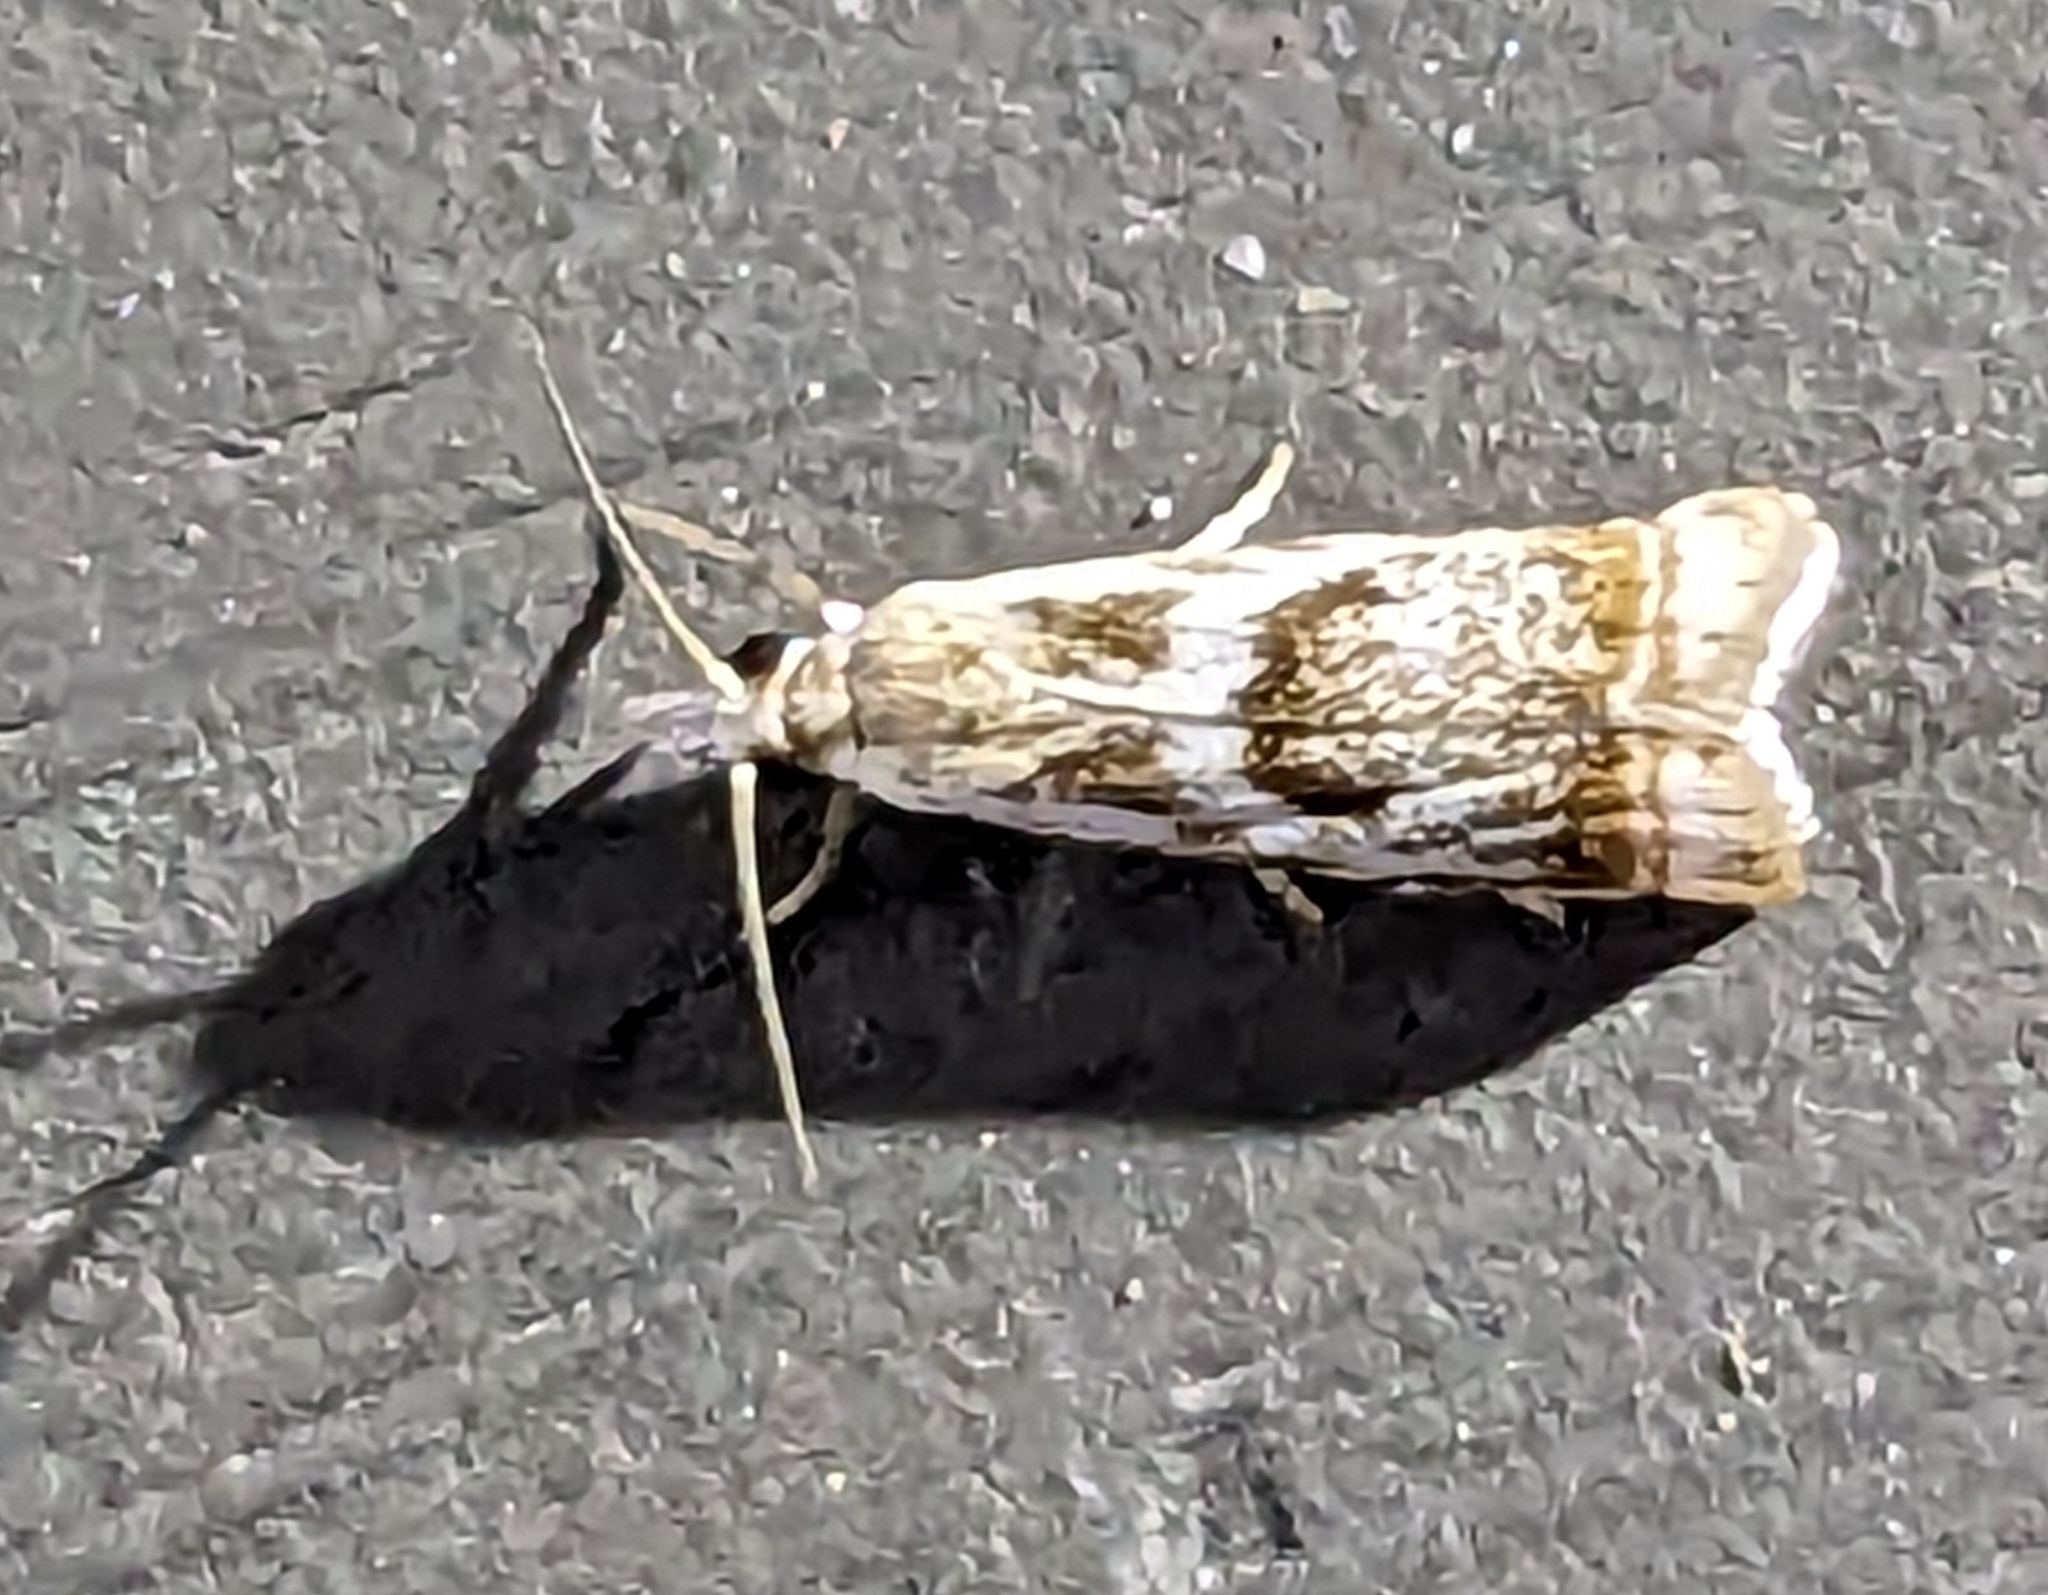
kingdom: Animalia
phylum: Arthropoda
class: Insecta
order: Lepidoptera
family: Crambidae
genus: Microcrambus
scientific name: Microcrambus elegans
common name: Elegant grass-veneer
